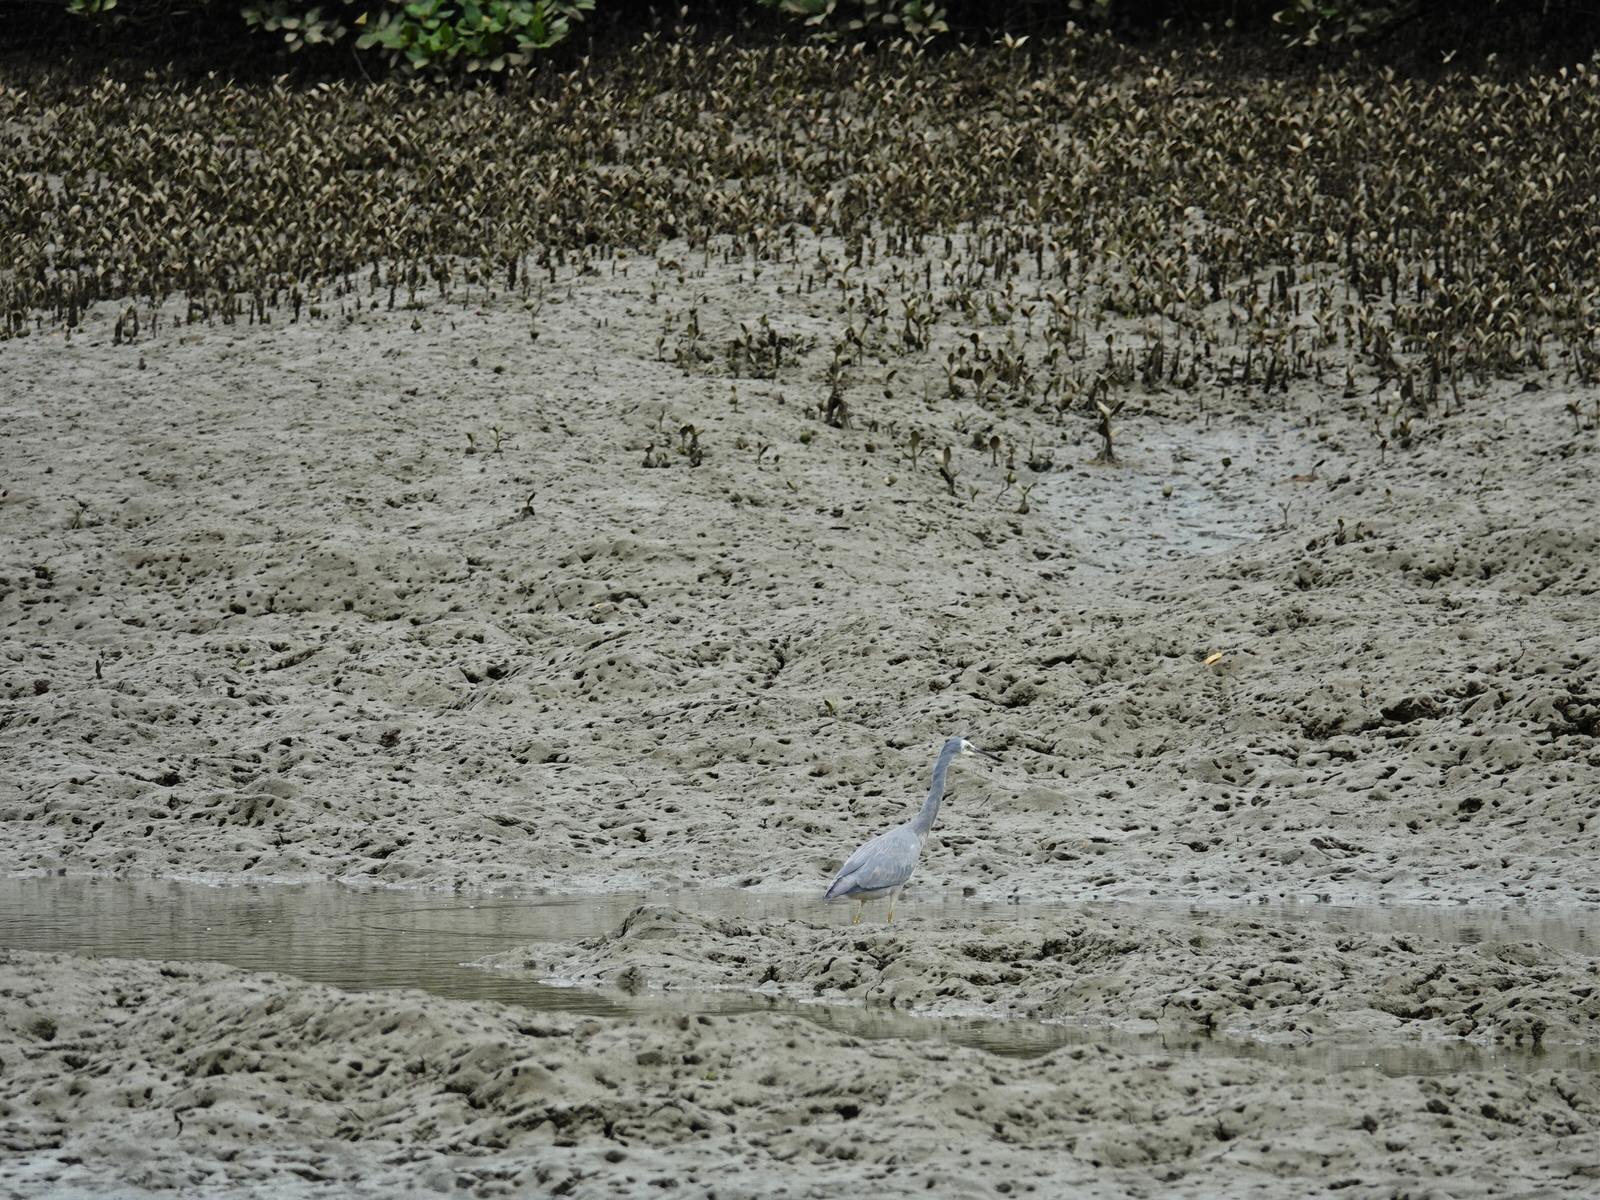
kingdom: Animalia
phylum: Chordata
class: Aves
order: Pelecaniformes
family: Ardeidae
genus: Egretta
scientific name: Egretta novaehollandiae
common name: White-faced heron
